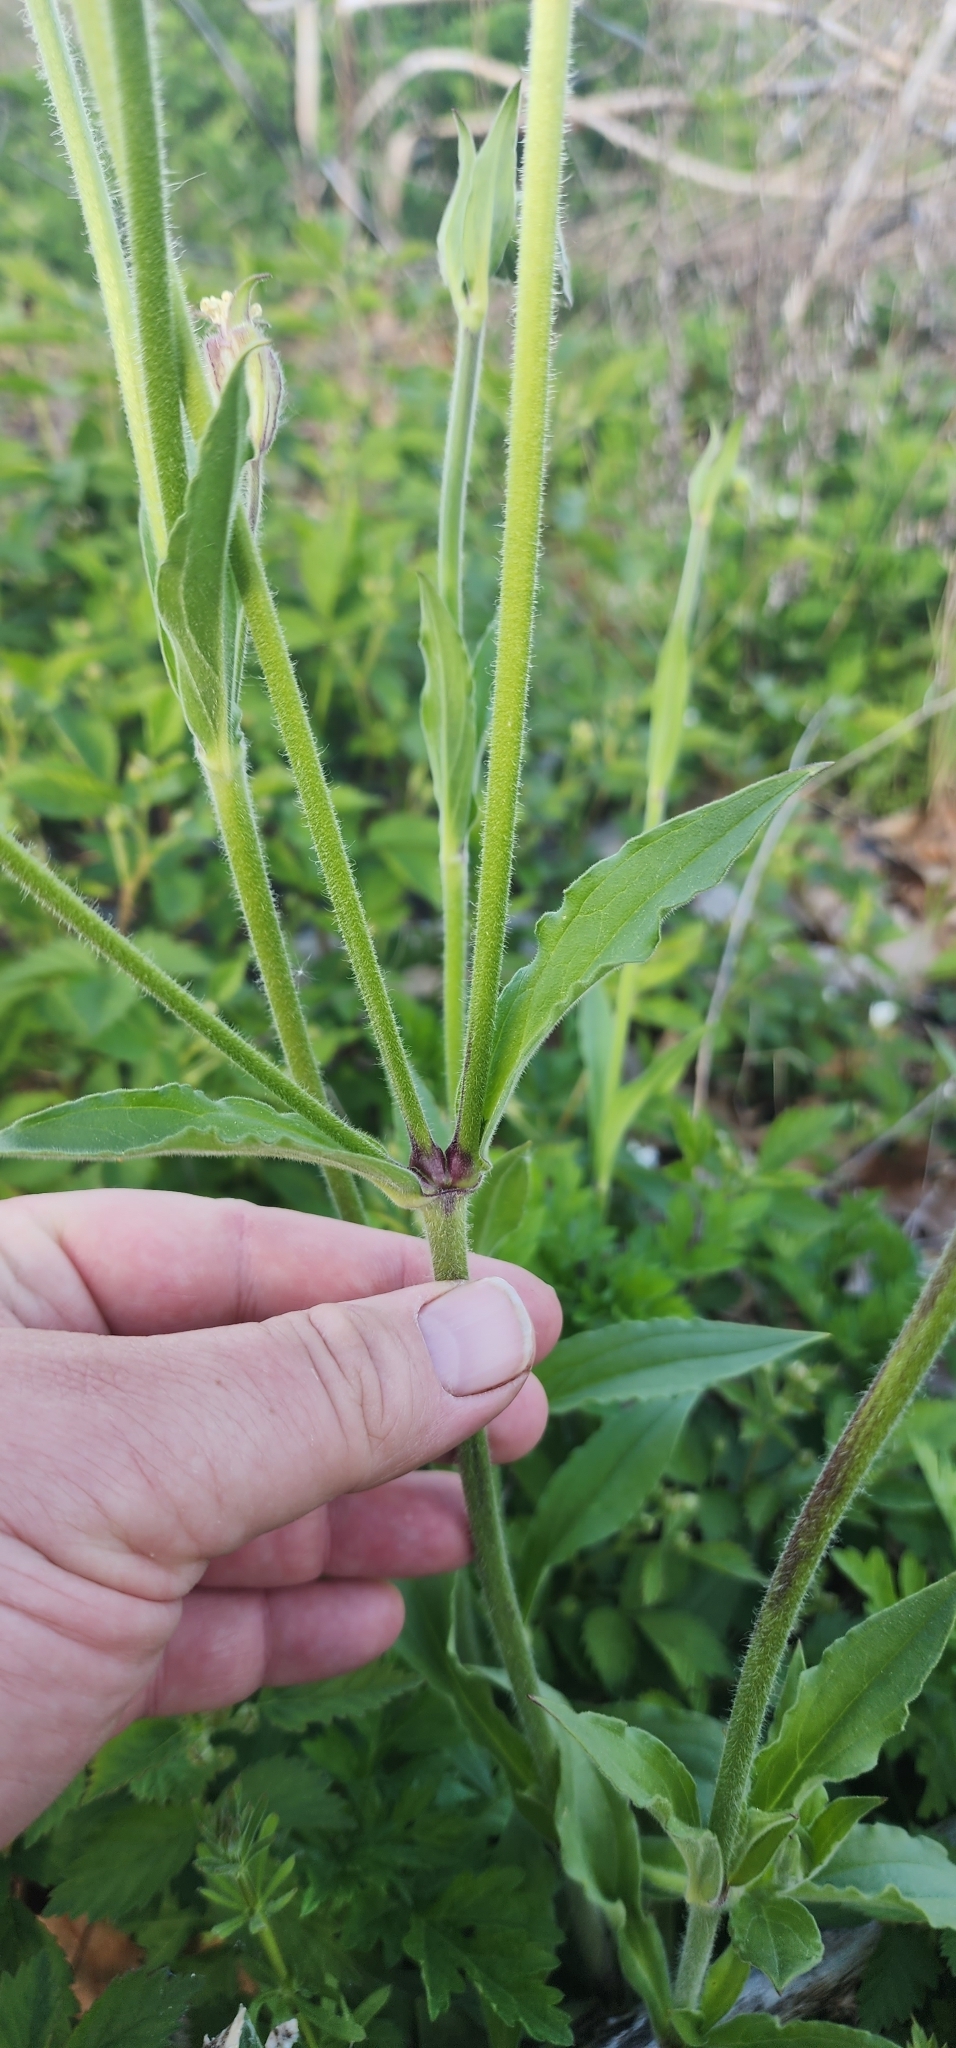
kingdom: Plantae
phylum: Tracheophyta
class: Magnoliopsida
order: Caryophyllales
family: Caryophyllaceae
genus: Silene
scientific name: Silene latifolia
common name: White campion
